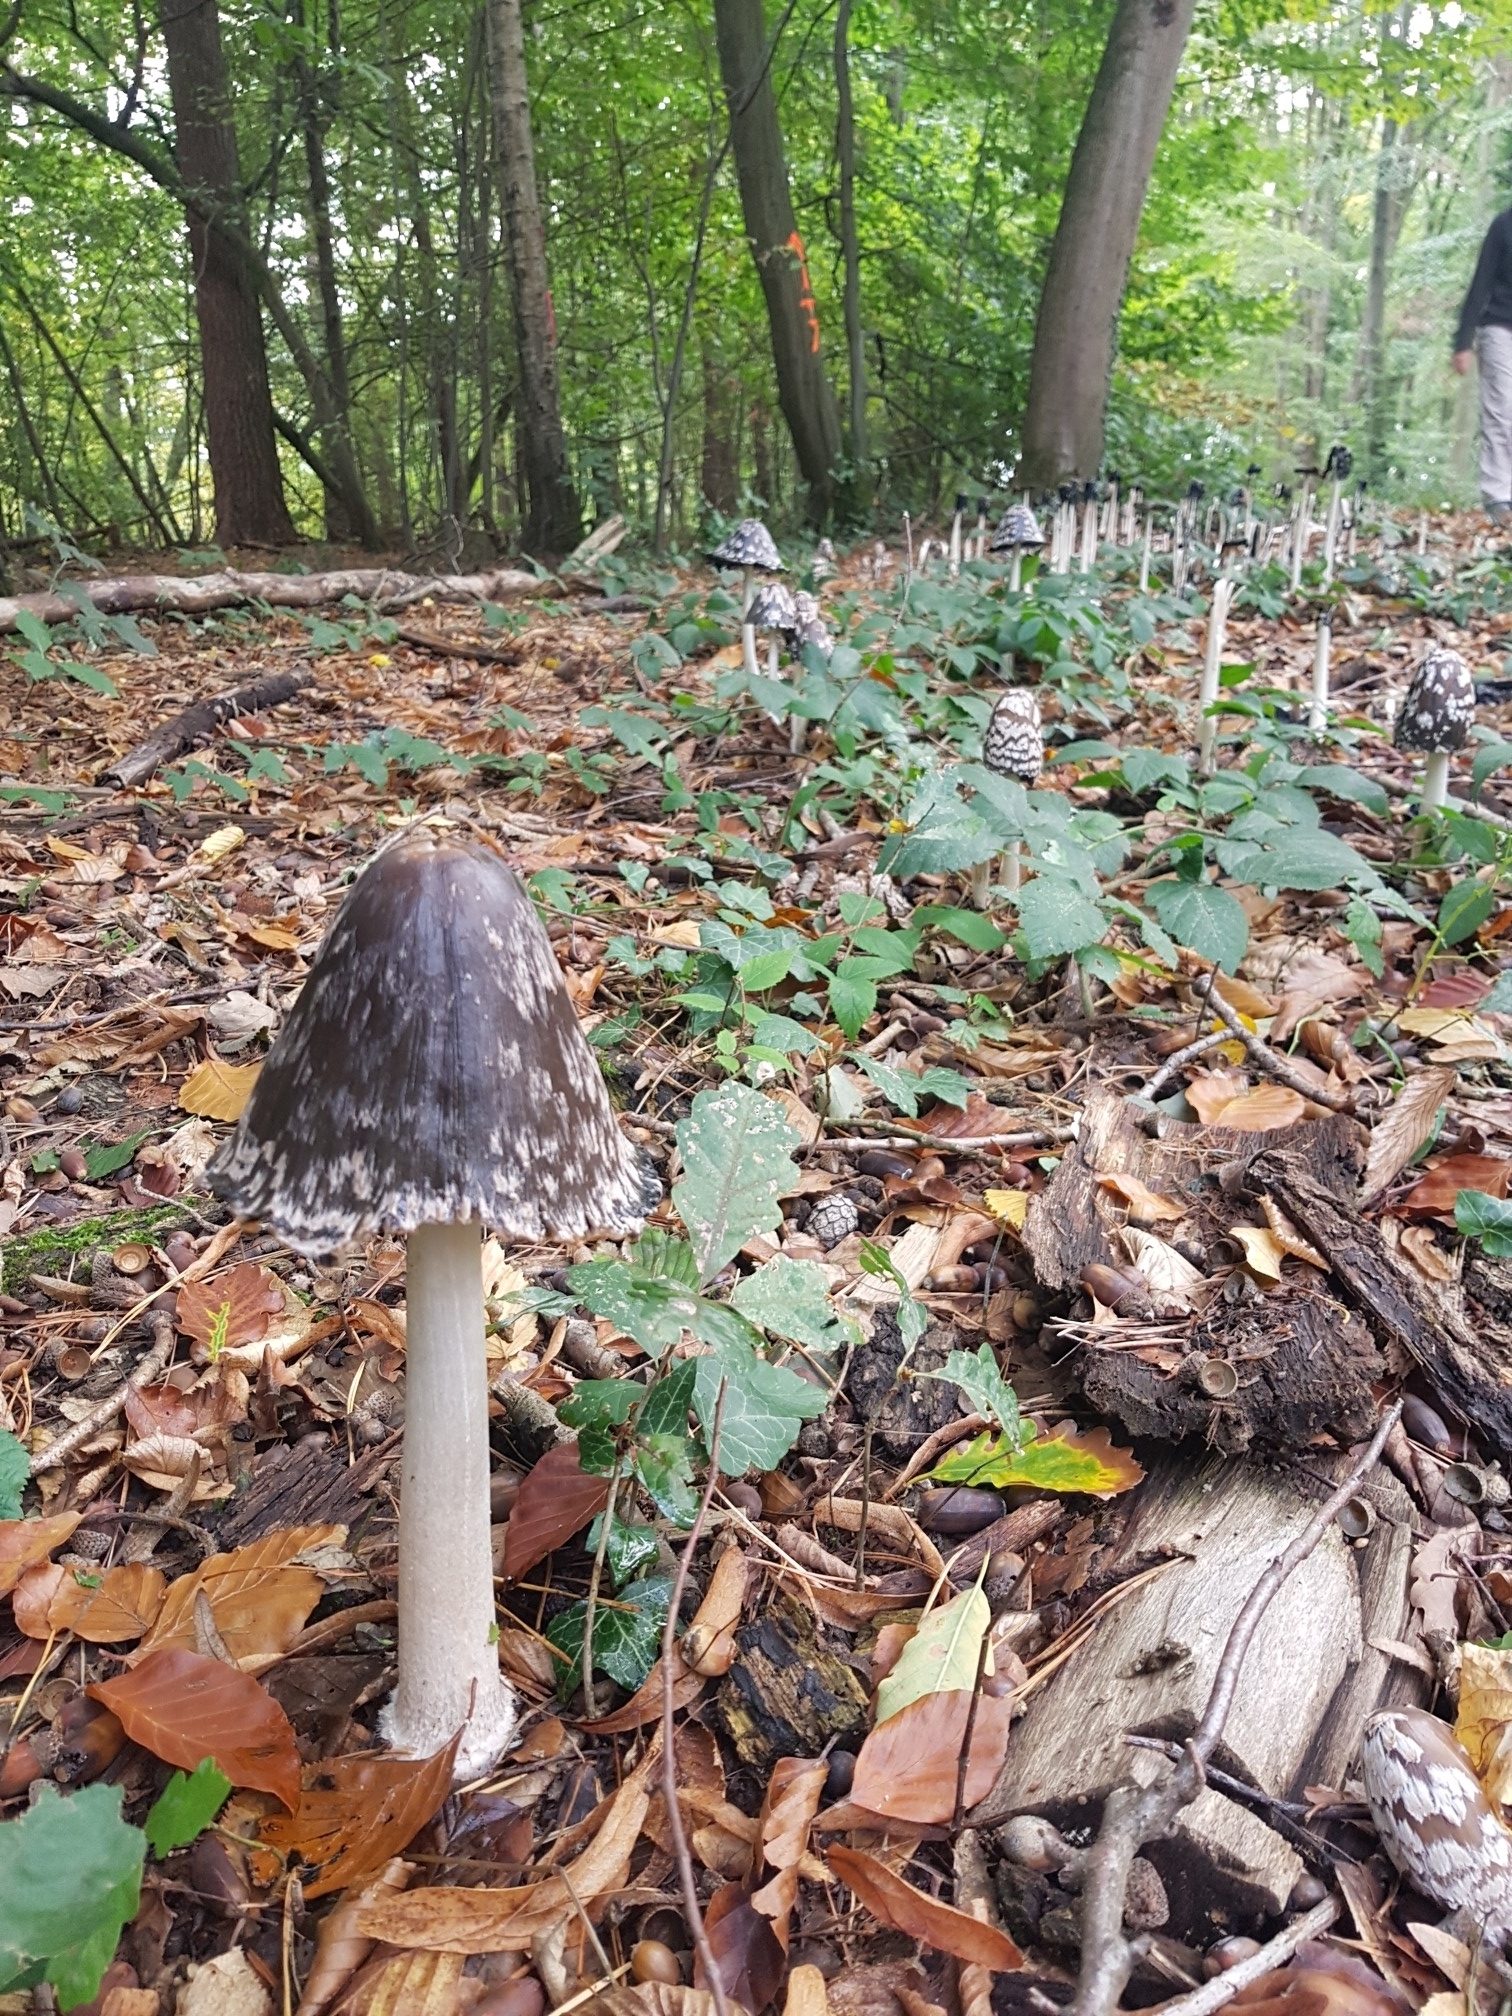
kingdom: Fungi
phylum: Basidiomycota
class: Agaricomycetes
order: Agaricales
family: Psathyrellaceae
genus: Coprinopsis
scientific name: Coprinopsis picacea
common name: Magpie inkcap
